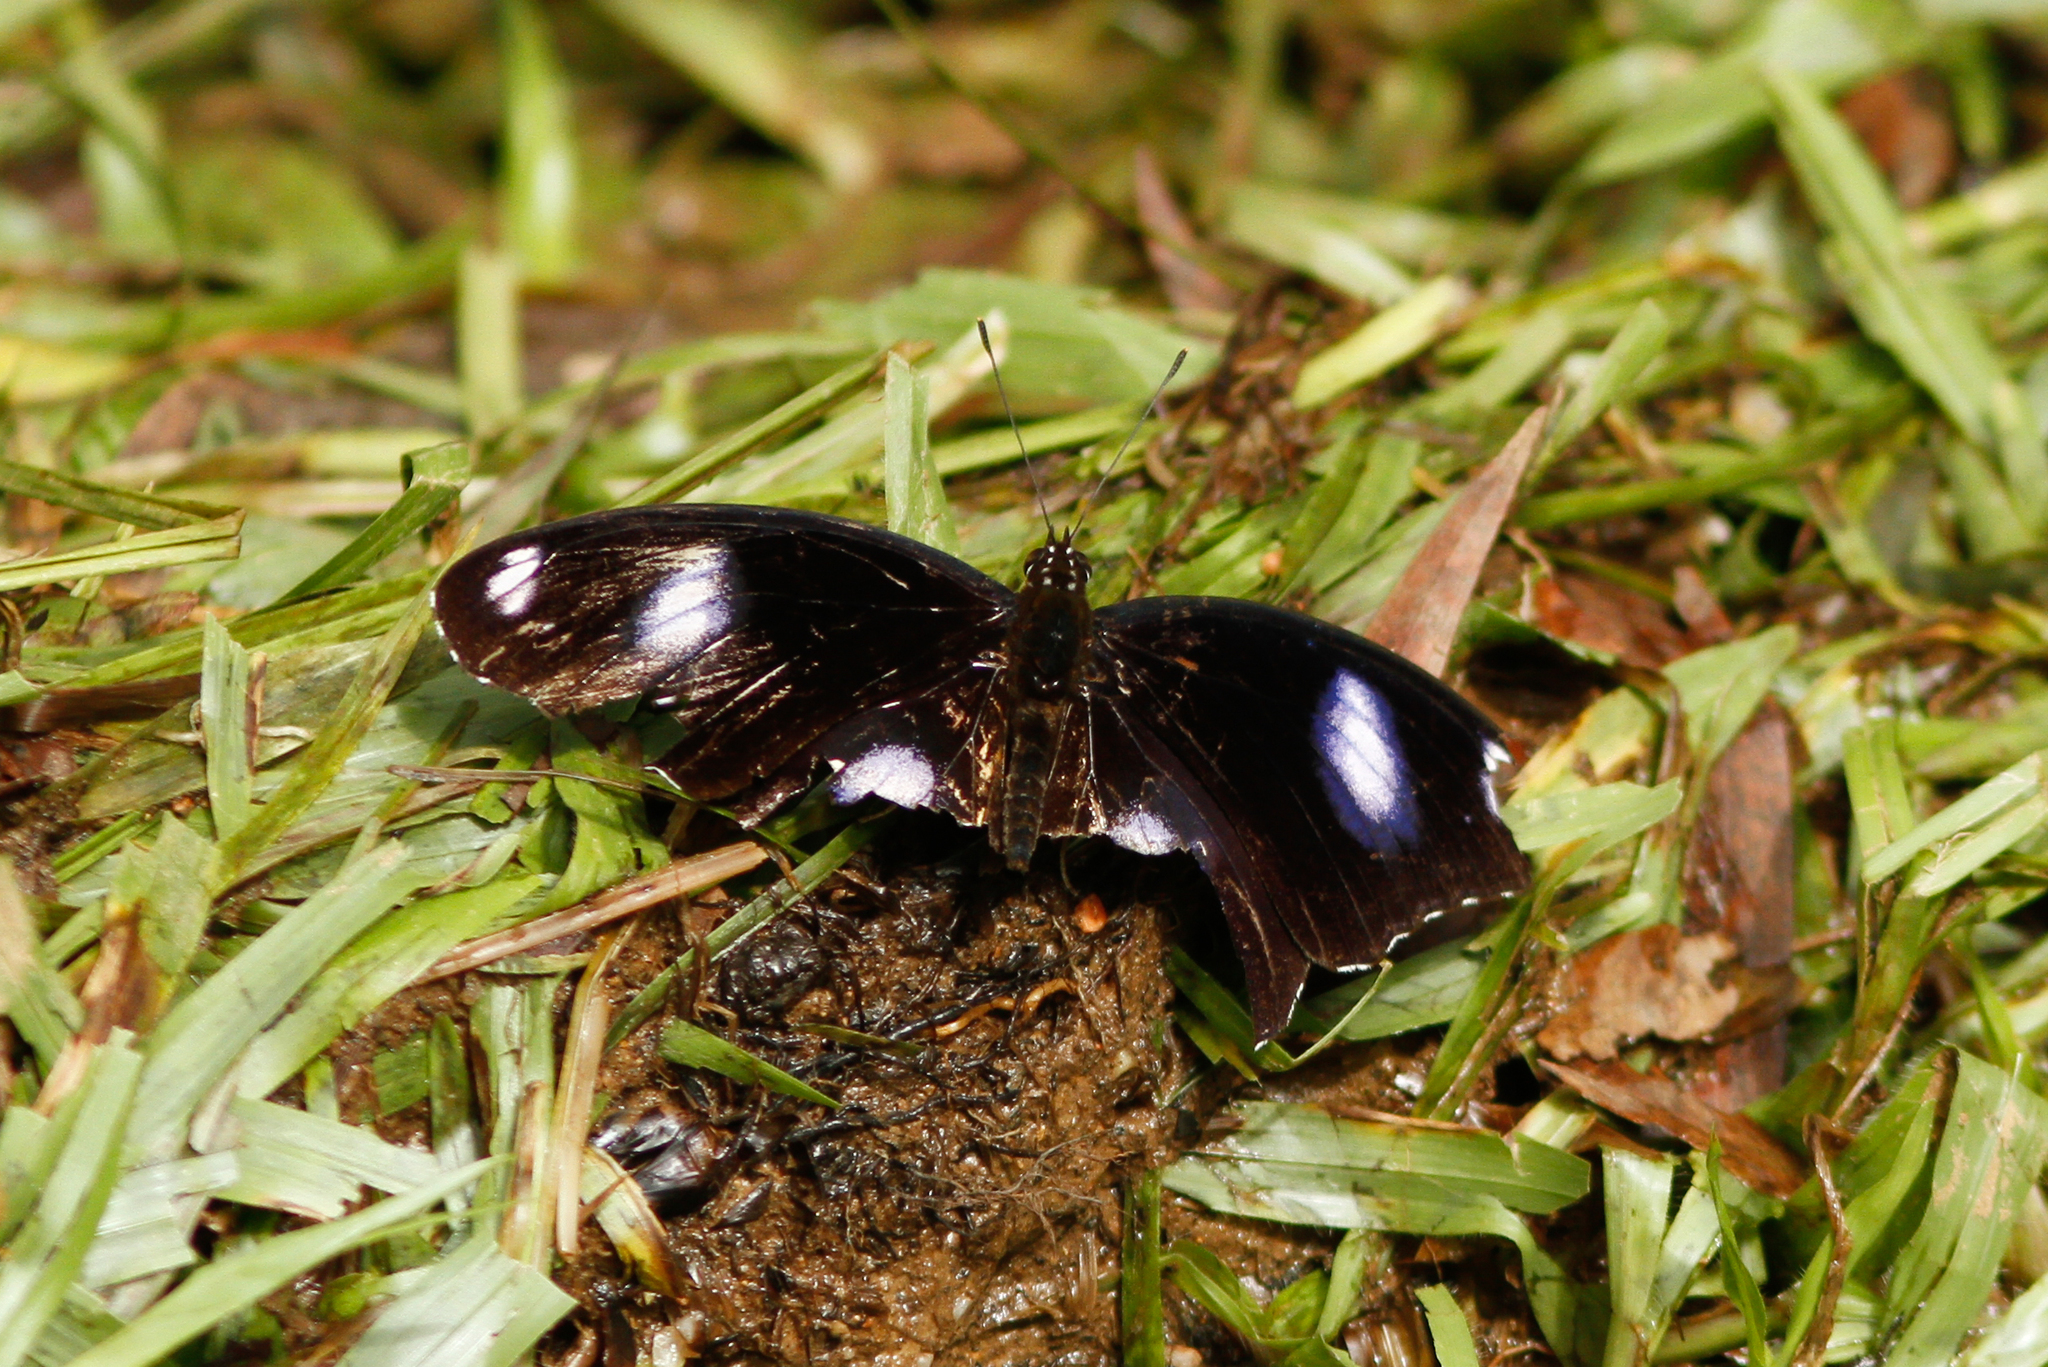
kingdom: Animalia
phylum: Arthropoda
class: Insecta
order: Lepidoptera
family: Nymphalidae
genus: Hypolimnas
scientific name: Hypolimnas bolina
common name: Great eggfly
